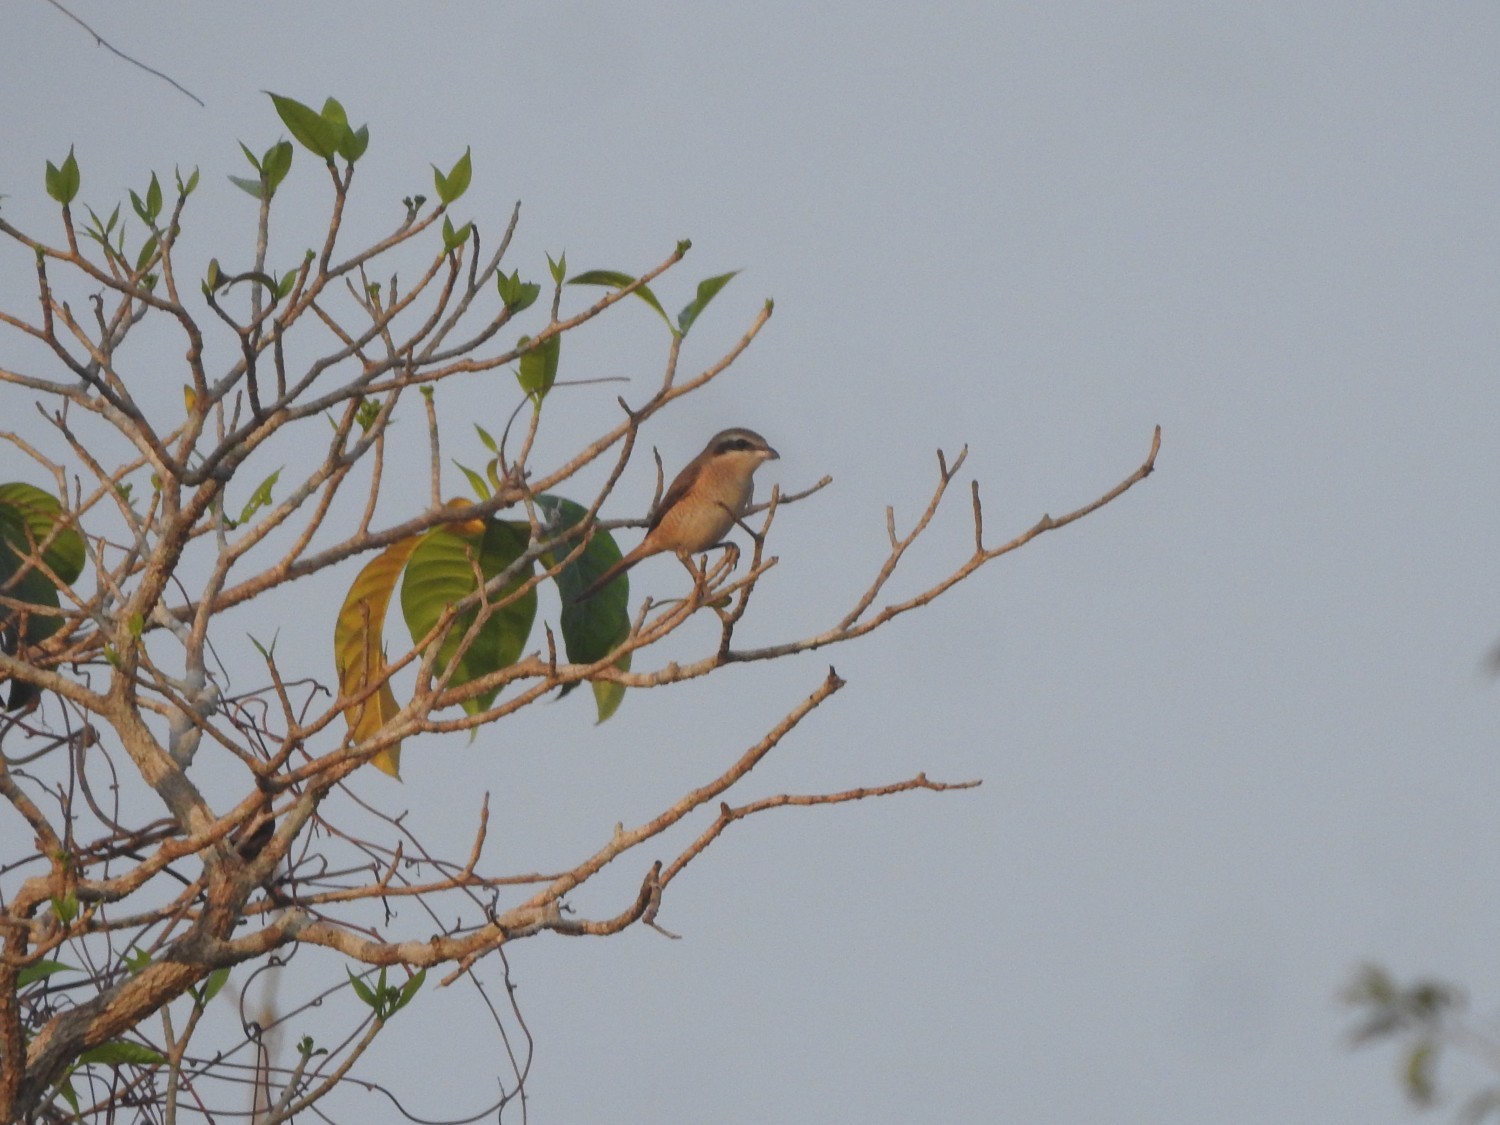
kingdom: Animalia
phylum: Chordata
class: Aves
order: Passeriformes
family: Laniidae
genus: Lanius
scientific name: Lanius cristatus
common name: Brown shrike
